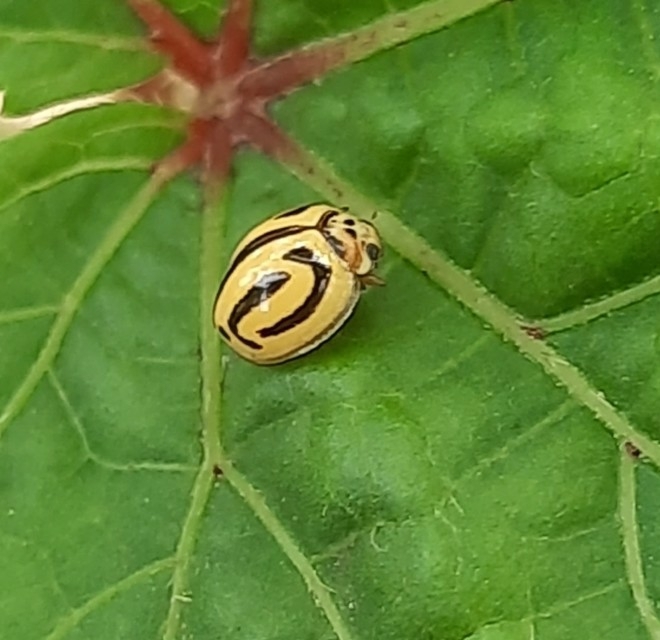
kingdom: Animalia
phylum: Arthropoda
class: Insecta
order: Coleoptera
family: Coccinellidae
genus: Anegleis
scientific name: Anegleis cardoni
